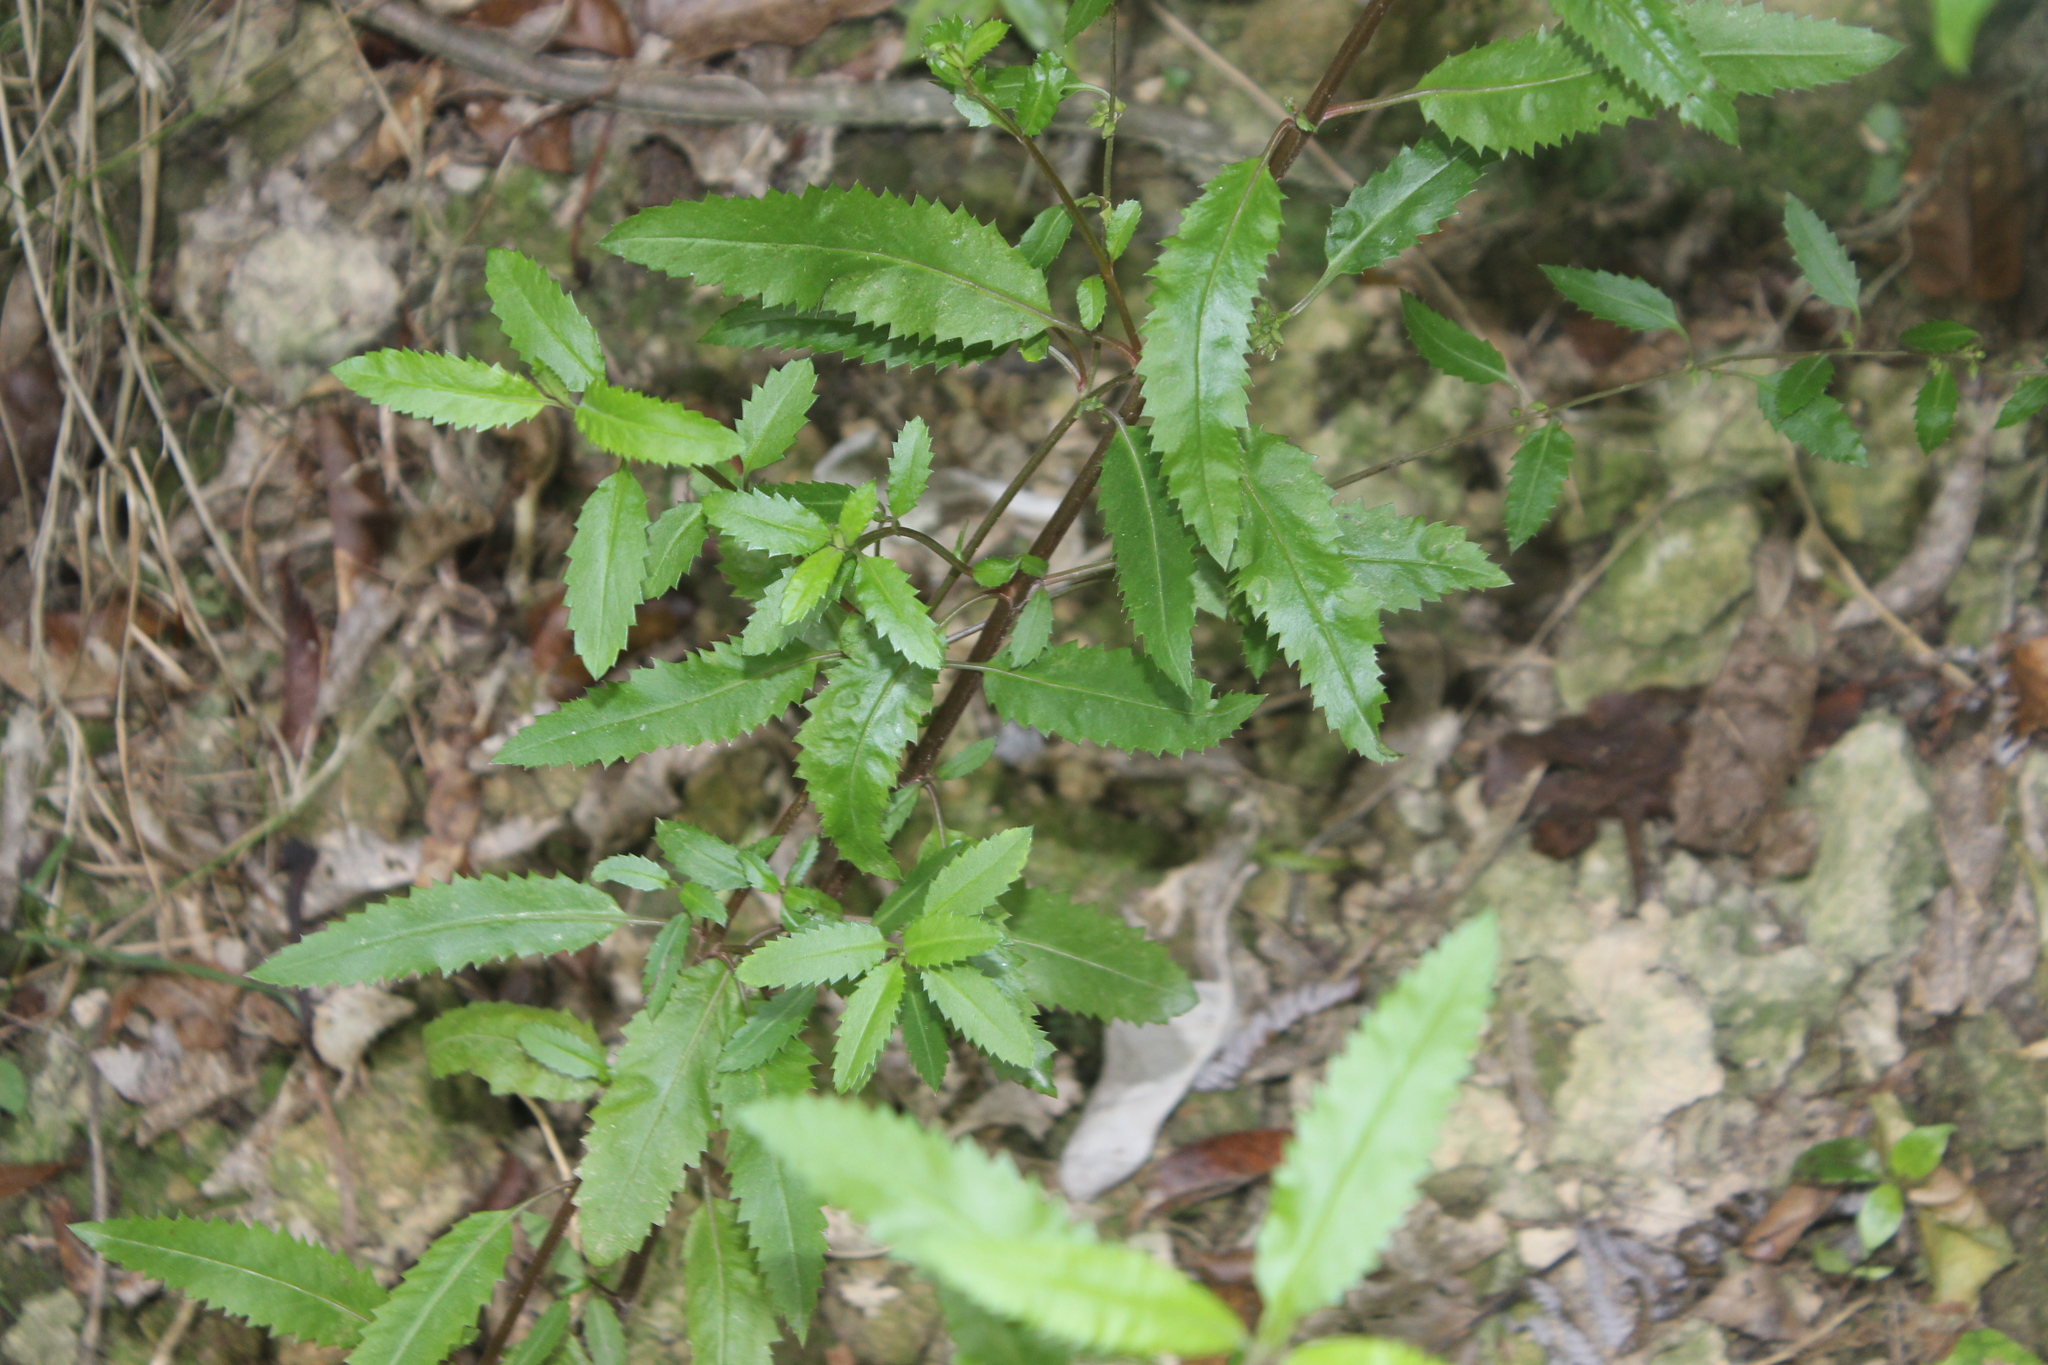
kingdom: Plantae
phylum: Tracheophyta
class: Magnoliopsida
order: Saxifragales
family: Haloragaceae
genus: Haloragis
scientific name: Haloragis erecta
